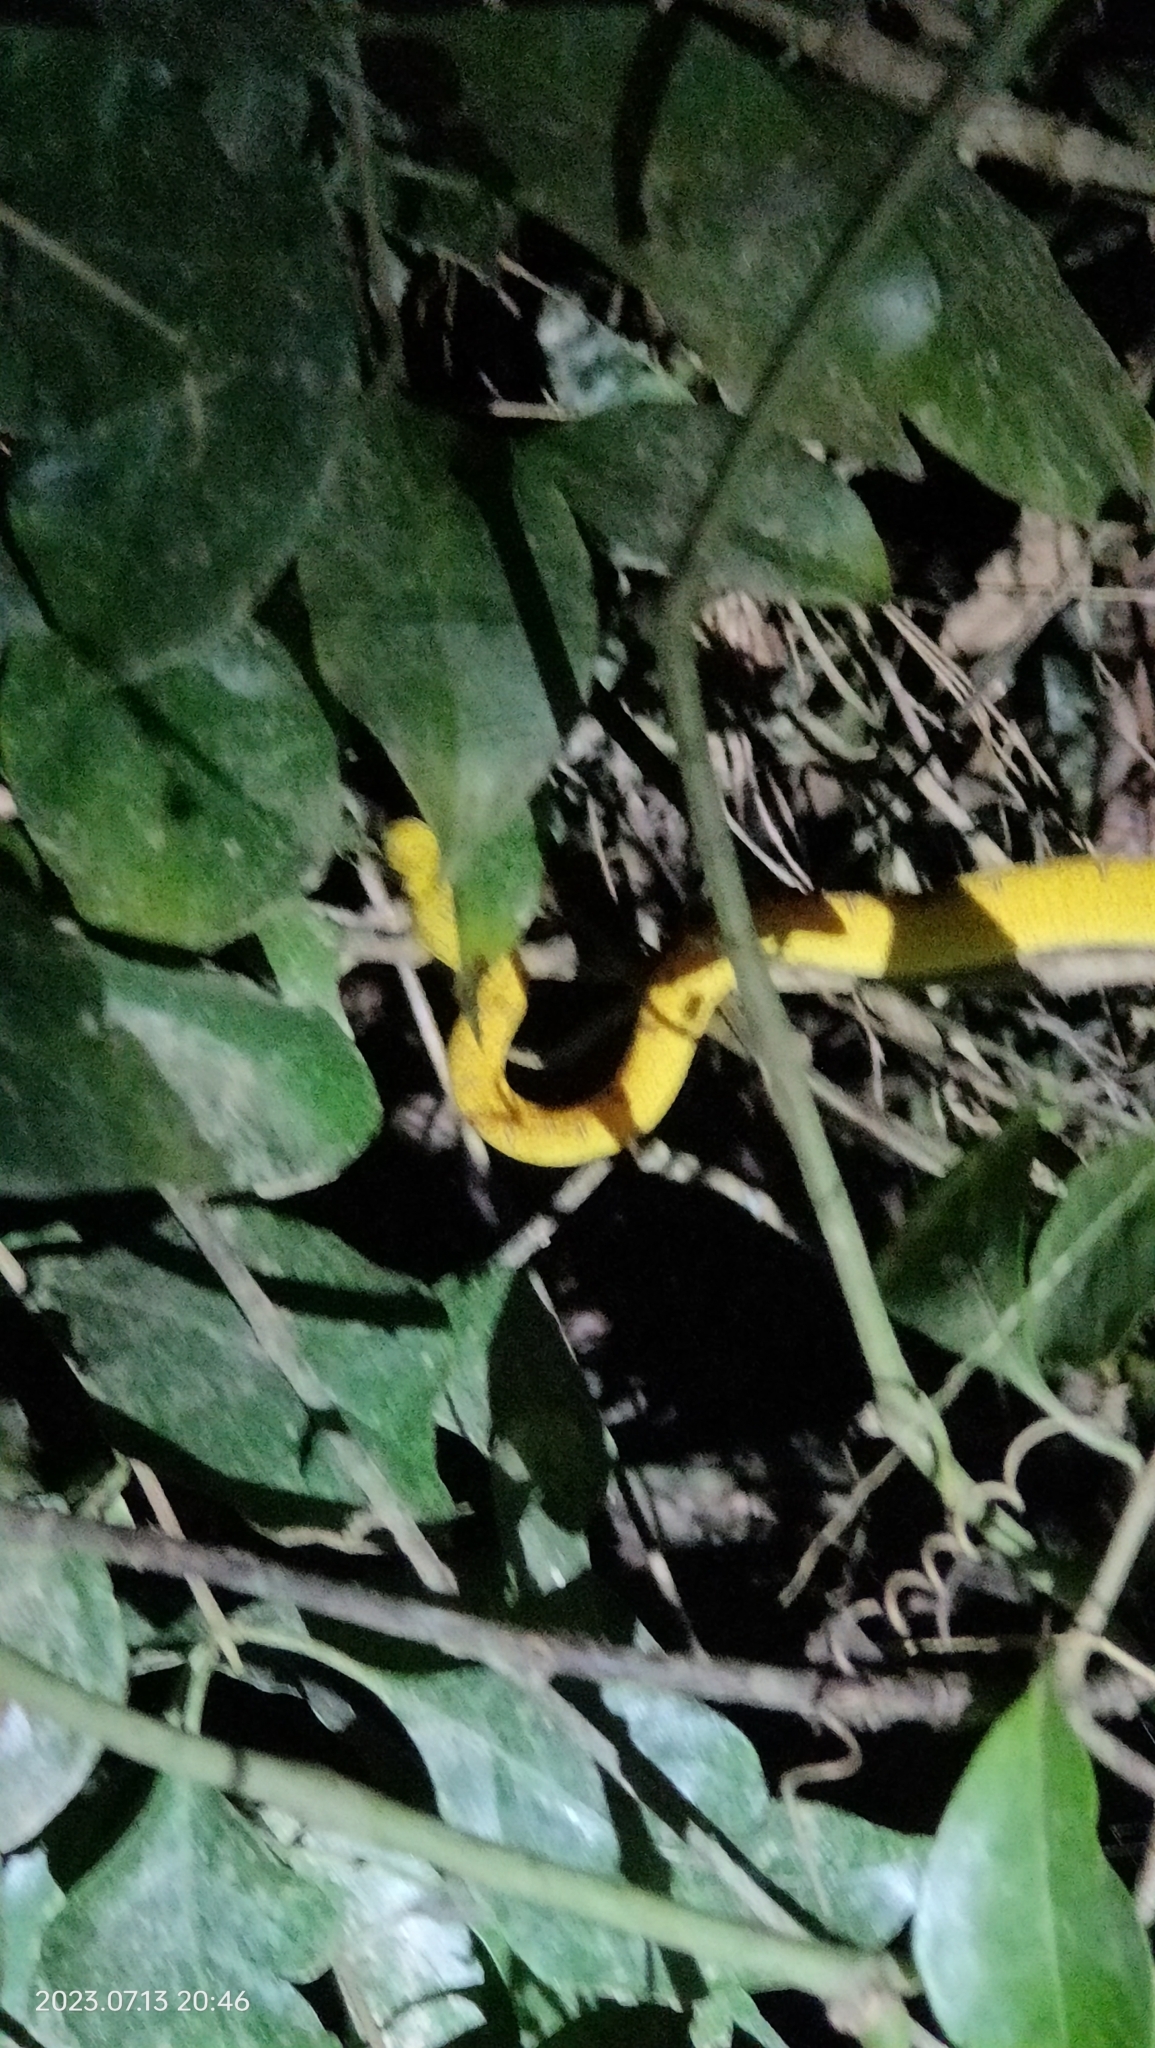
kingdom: Animalia
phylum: Chordata
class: Squamata
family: Pythonidae
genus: Morelia
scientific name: Morelia viridis
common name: Green tree python
